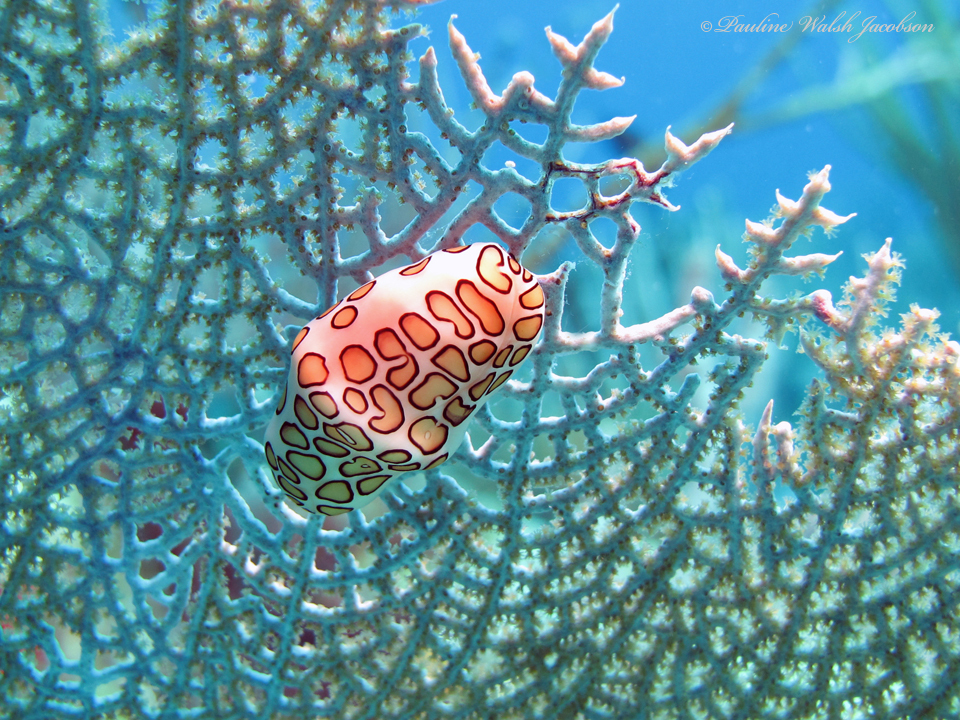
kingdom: Animalia
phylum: Mollusca
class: Gastropoda
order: Littorinimorpha
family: Ovulidae
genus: Cyphoma
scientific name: Cyphoma gibbosum
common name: Flamingo tongue
